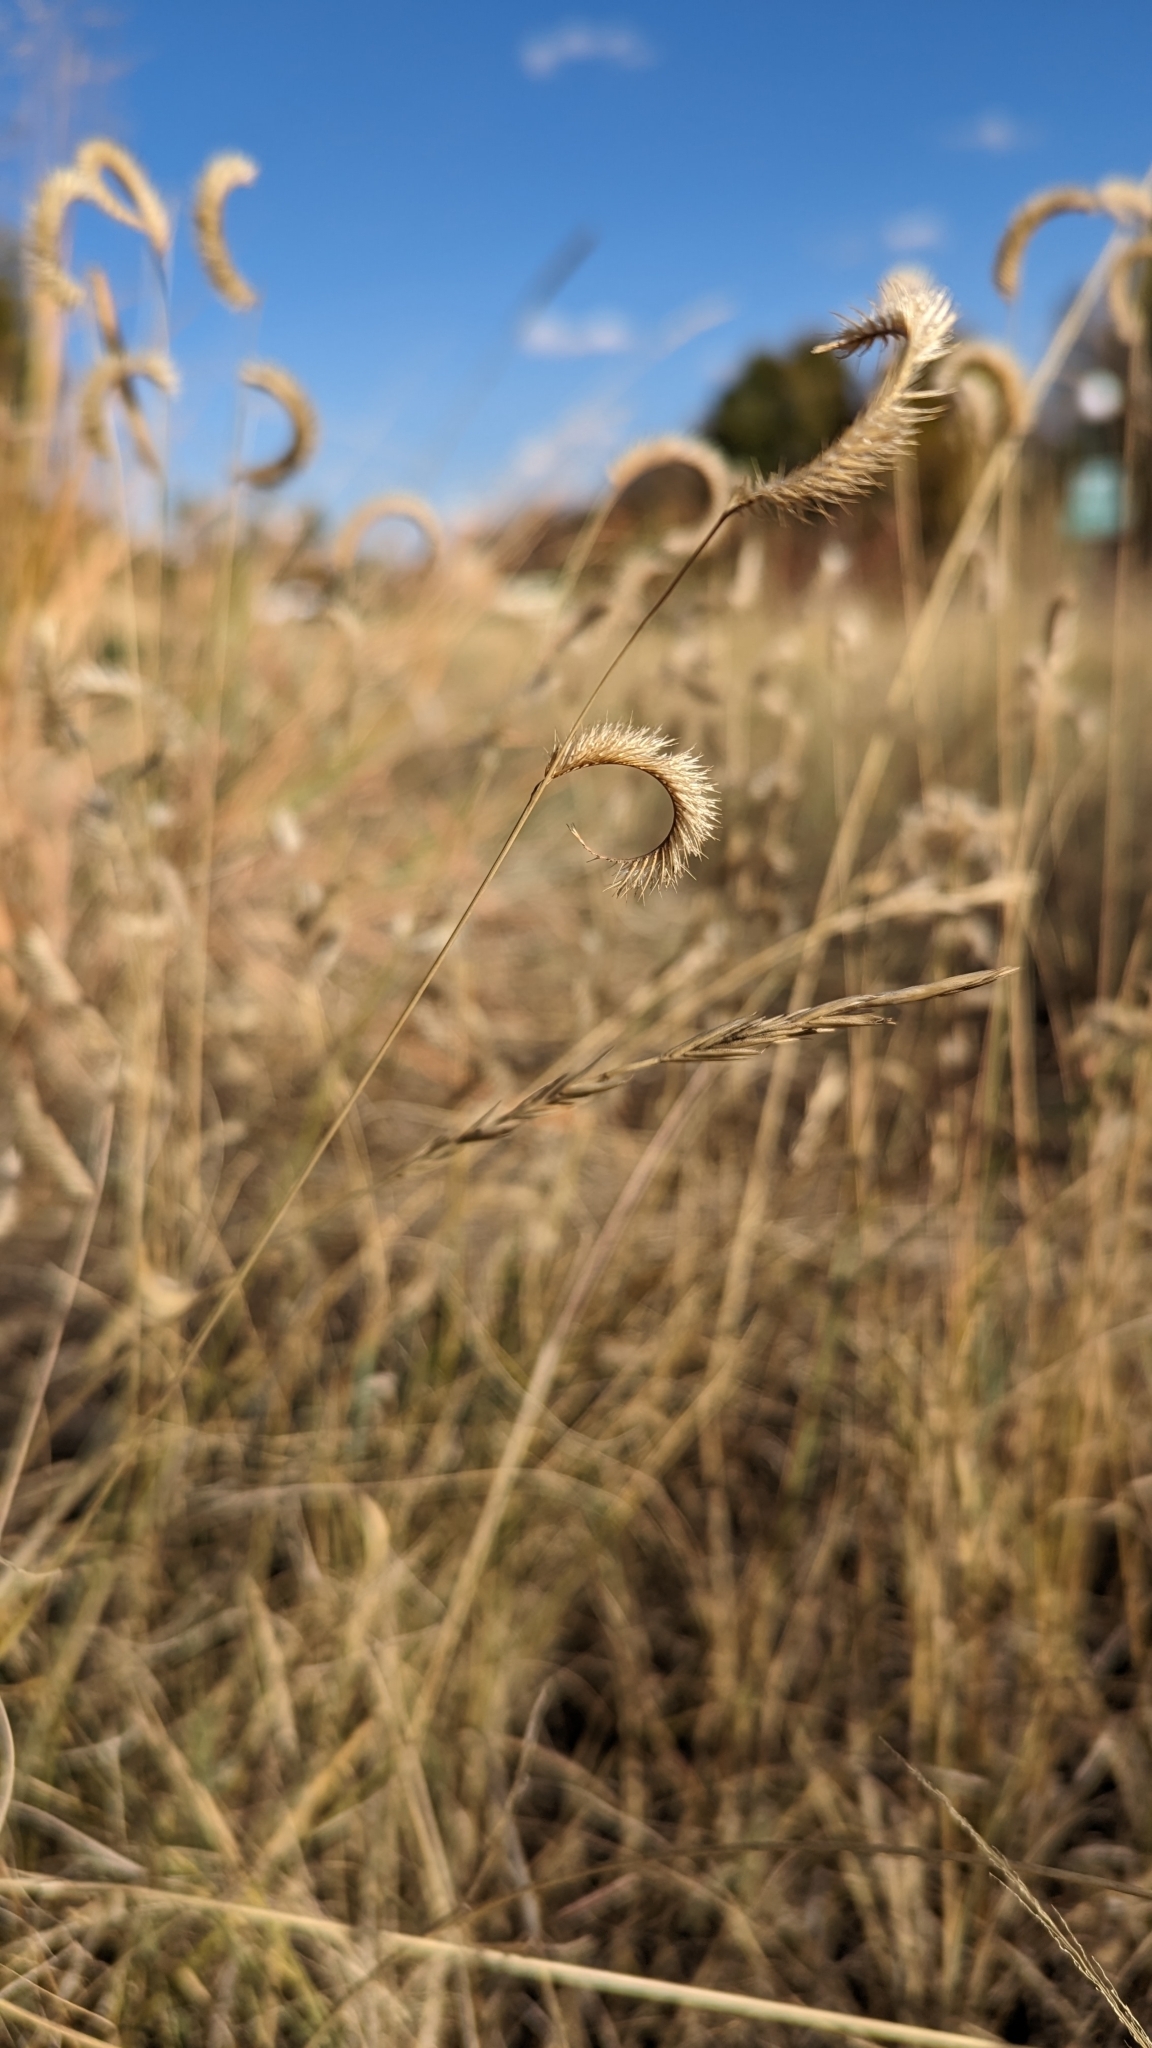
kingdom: Plantae
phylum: Tracheophyta
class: Liliopsida
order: Poales
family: Poaceae
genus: Bouteloua
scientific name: Bouteloua gracilis
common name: Blue grama
